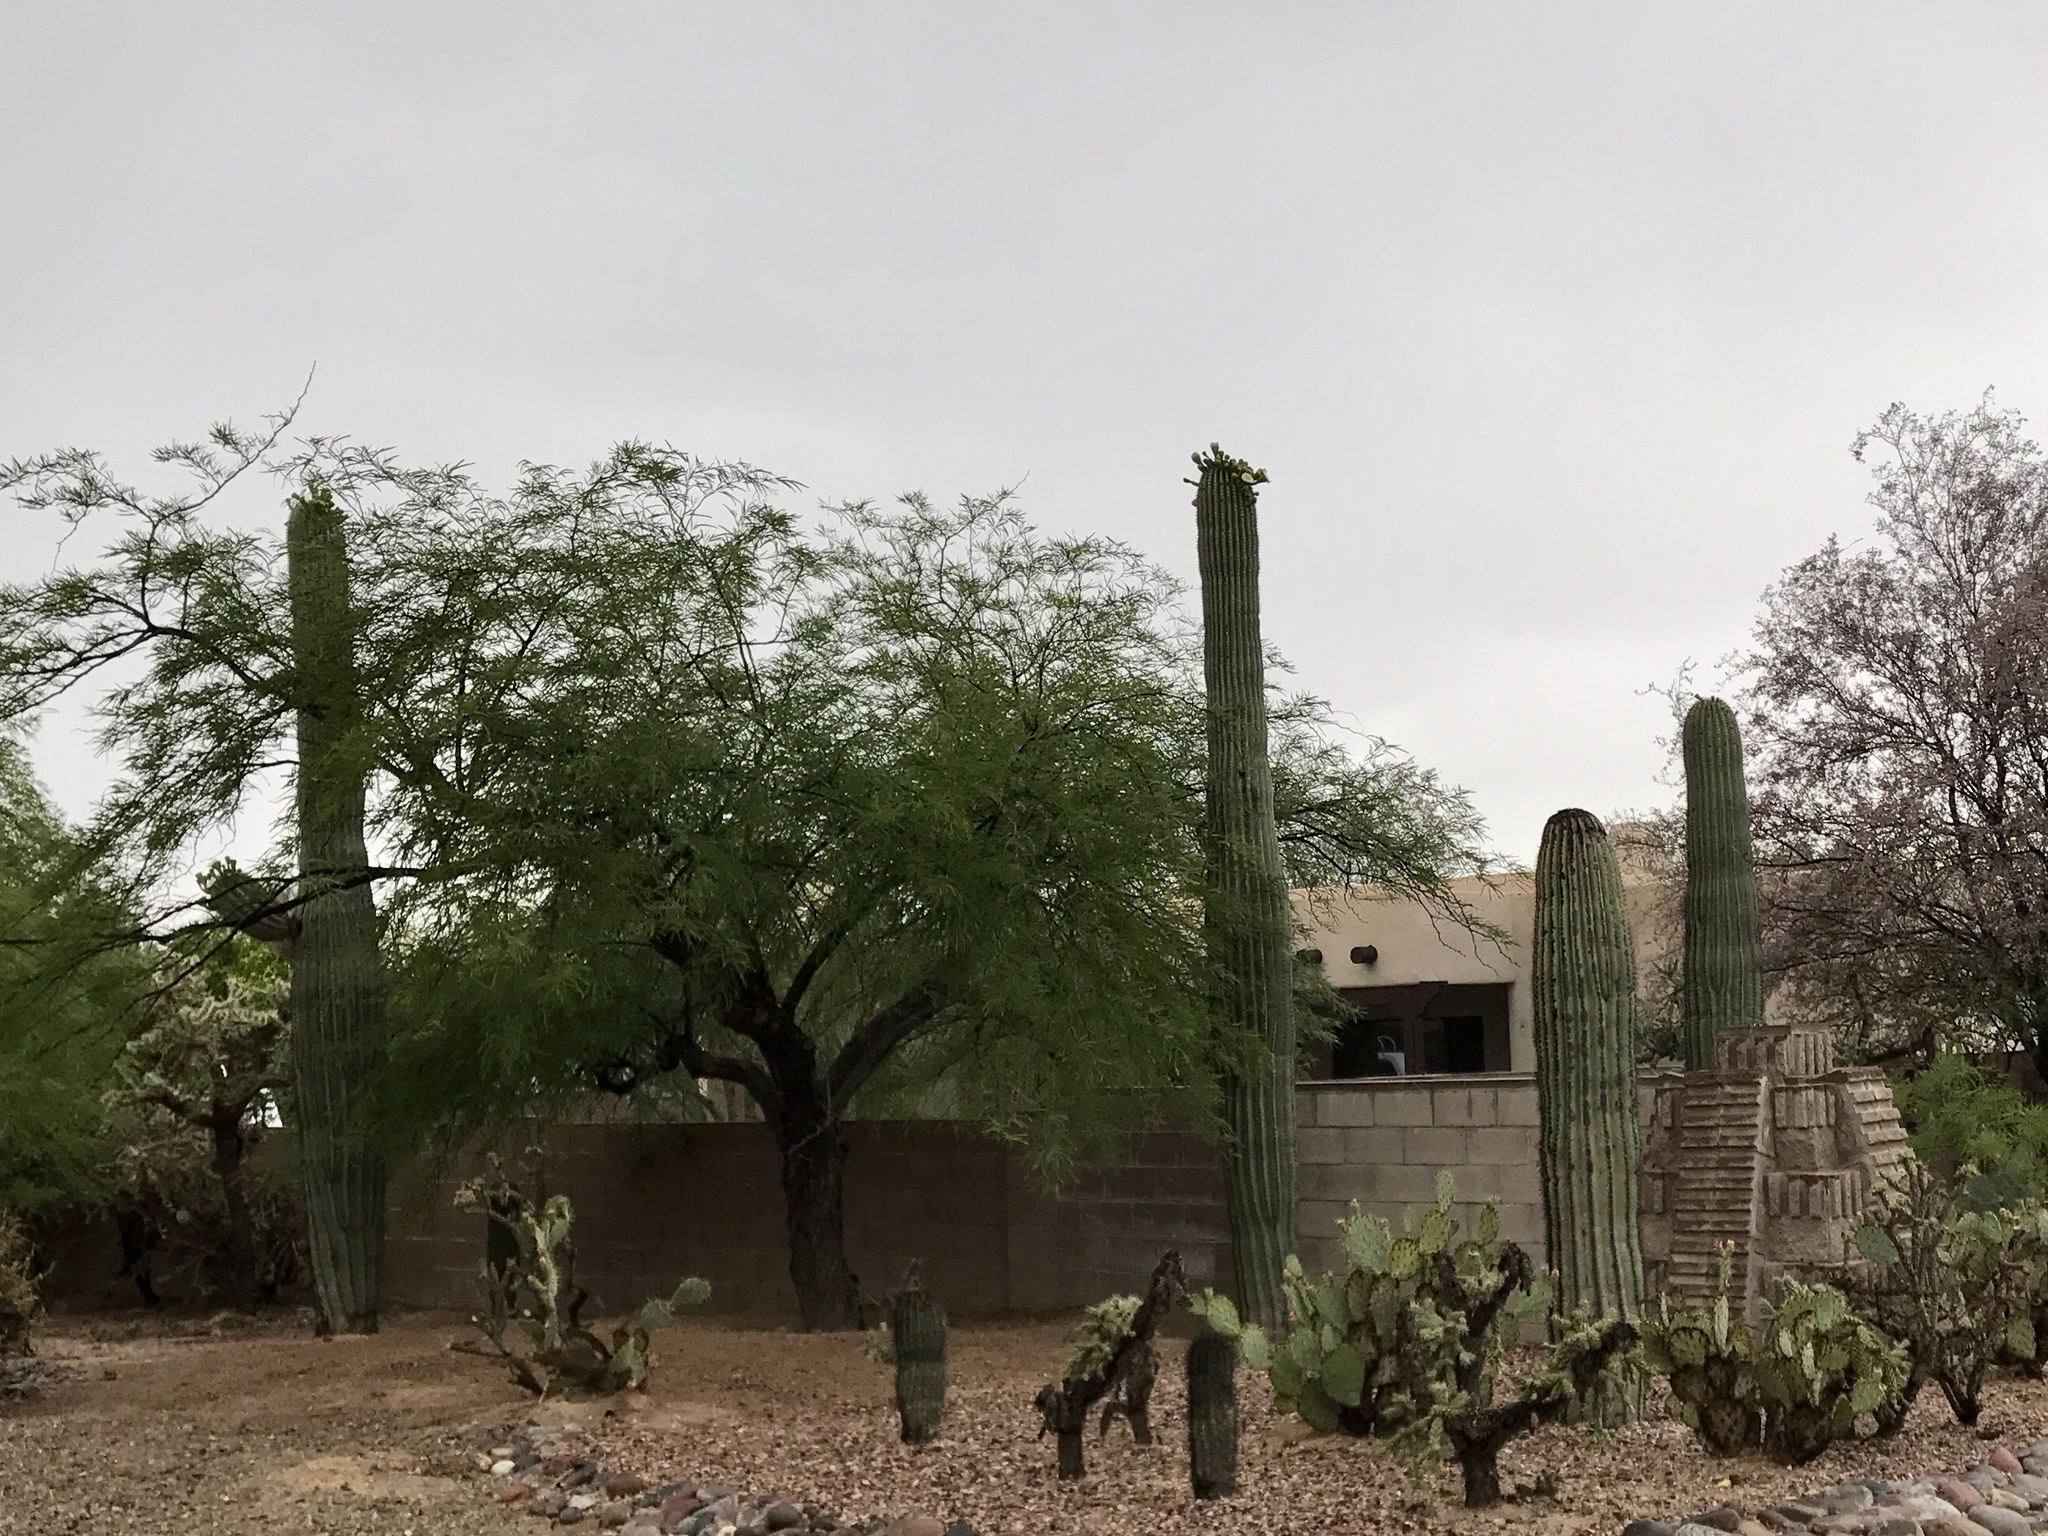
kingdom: Plantae
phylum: Tracheophyta
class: Magnoliopsida
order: Caryophyllales
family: Cactaceae
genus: Carnegiea
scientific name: Carnegiea gigantea
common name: Saguaro
